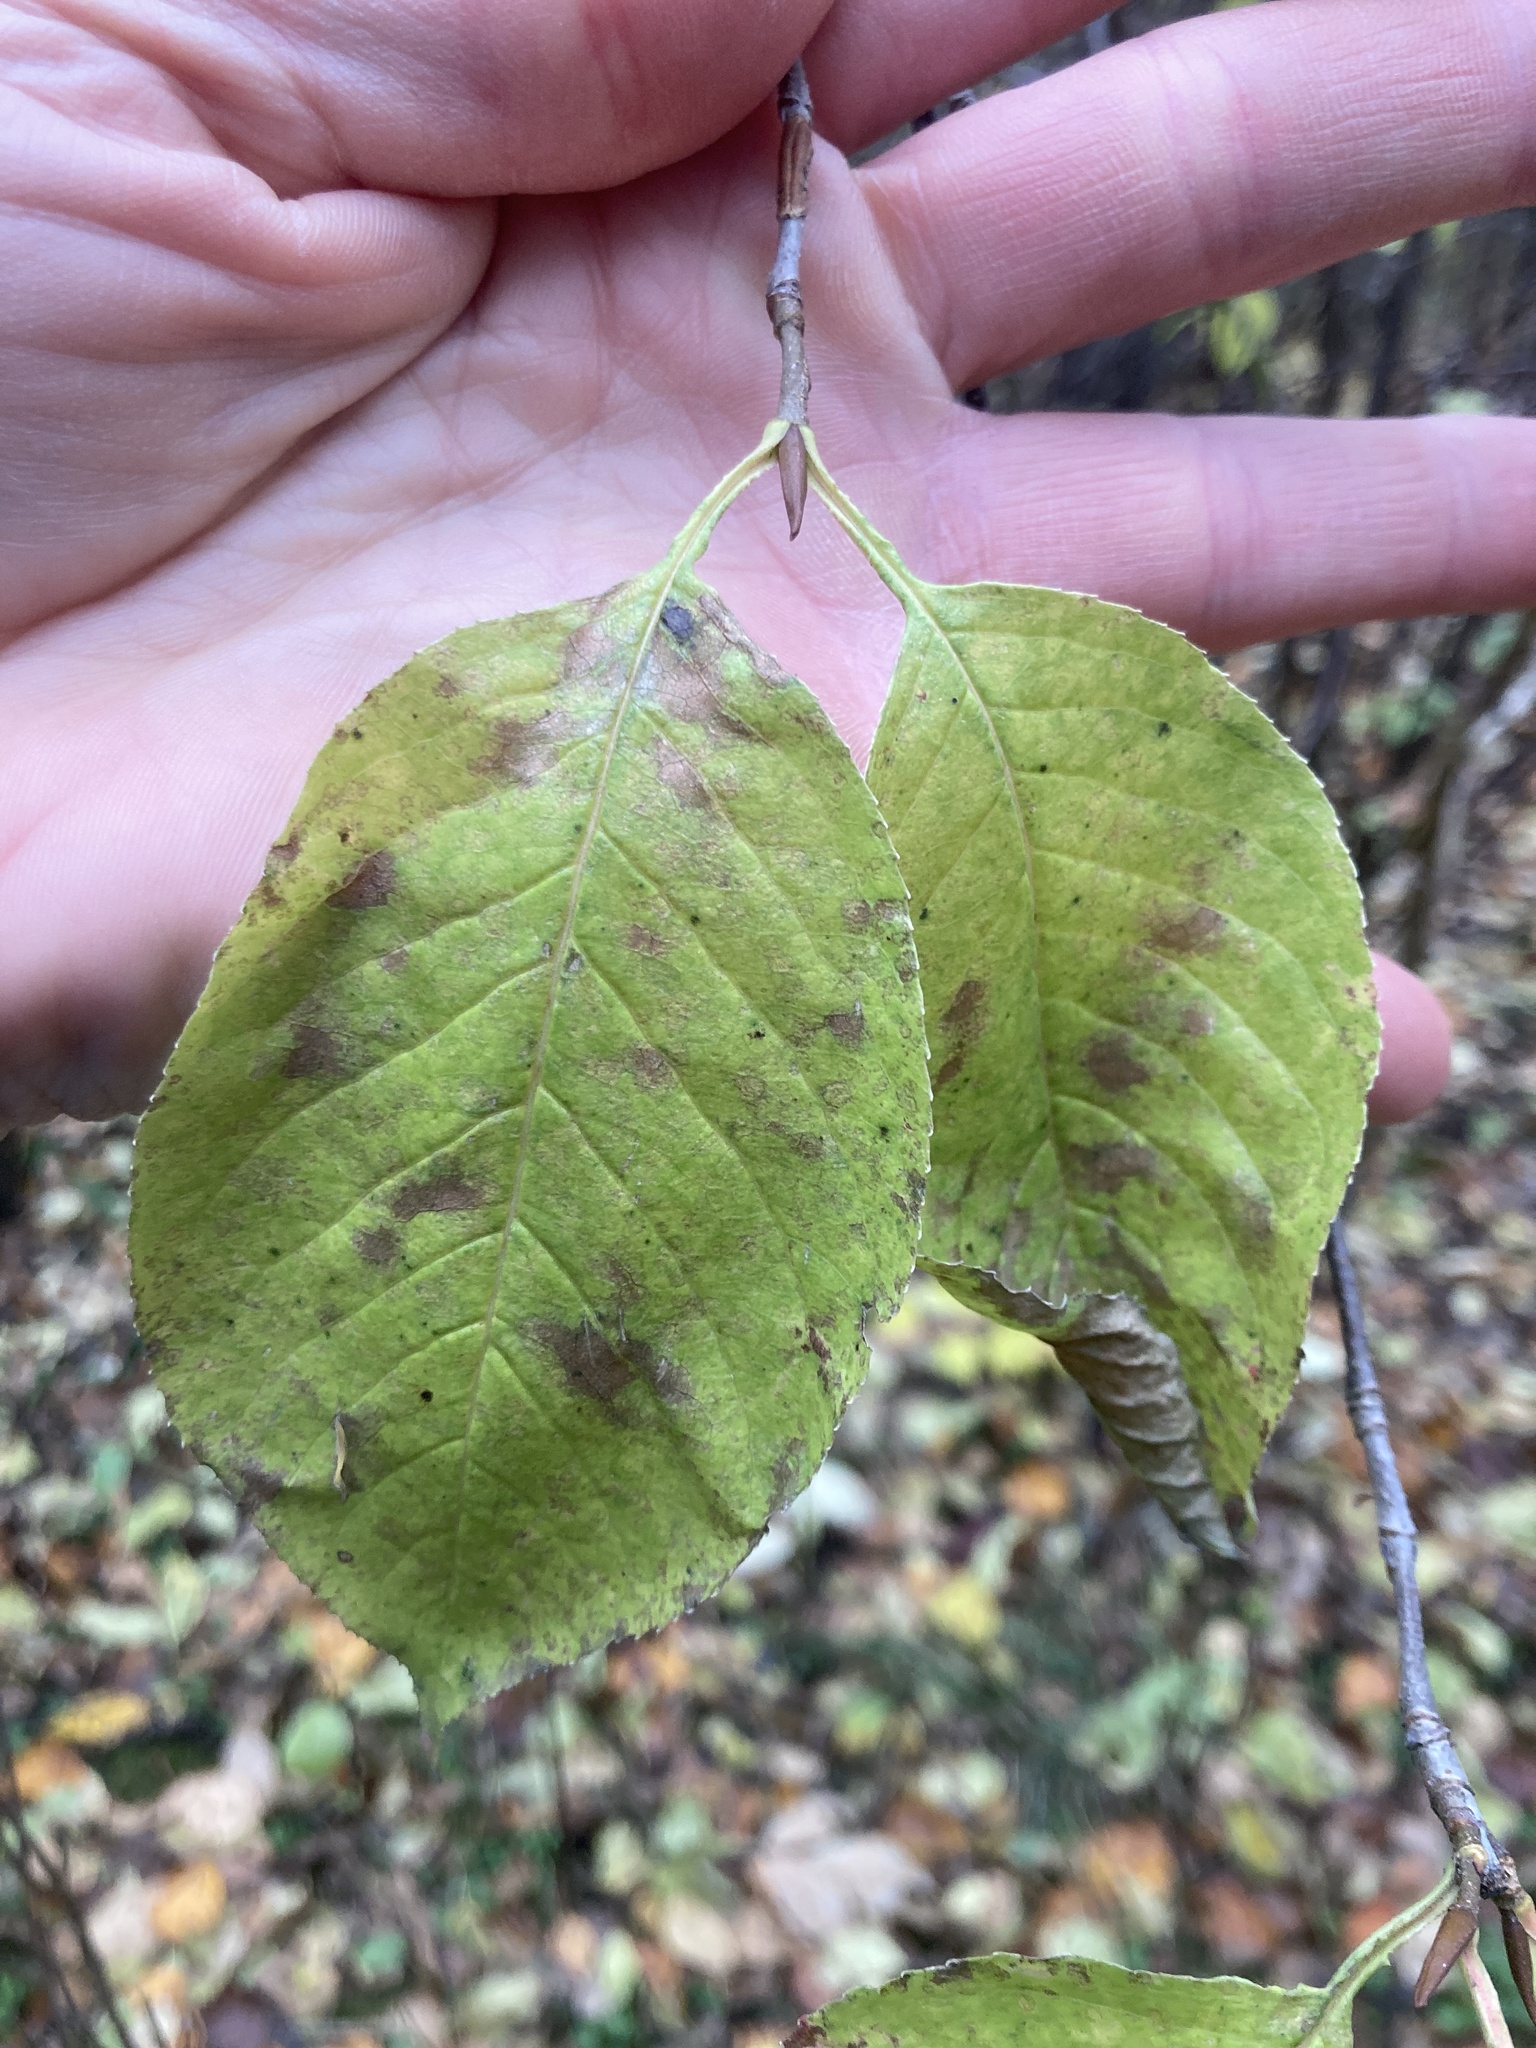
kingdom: Plantae
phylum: Tracheophyta
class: Magnoliopsida
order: Dipsacales
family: Viburnaceae
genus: Viburnum
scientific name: Viburnum lentago
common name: Black haw
